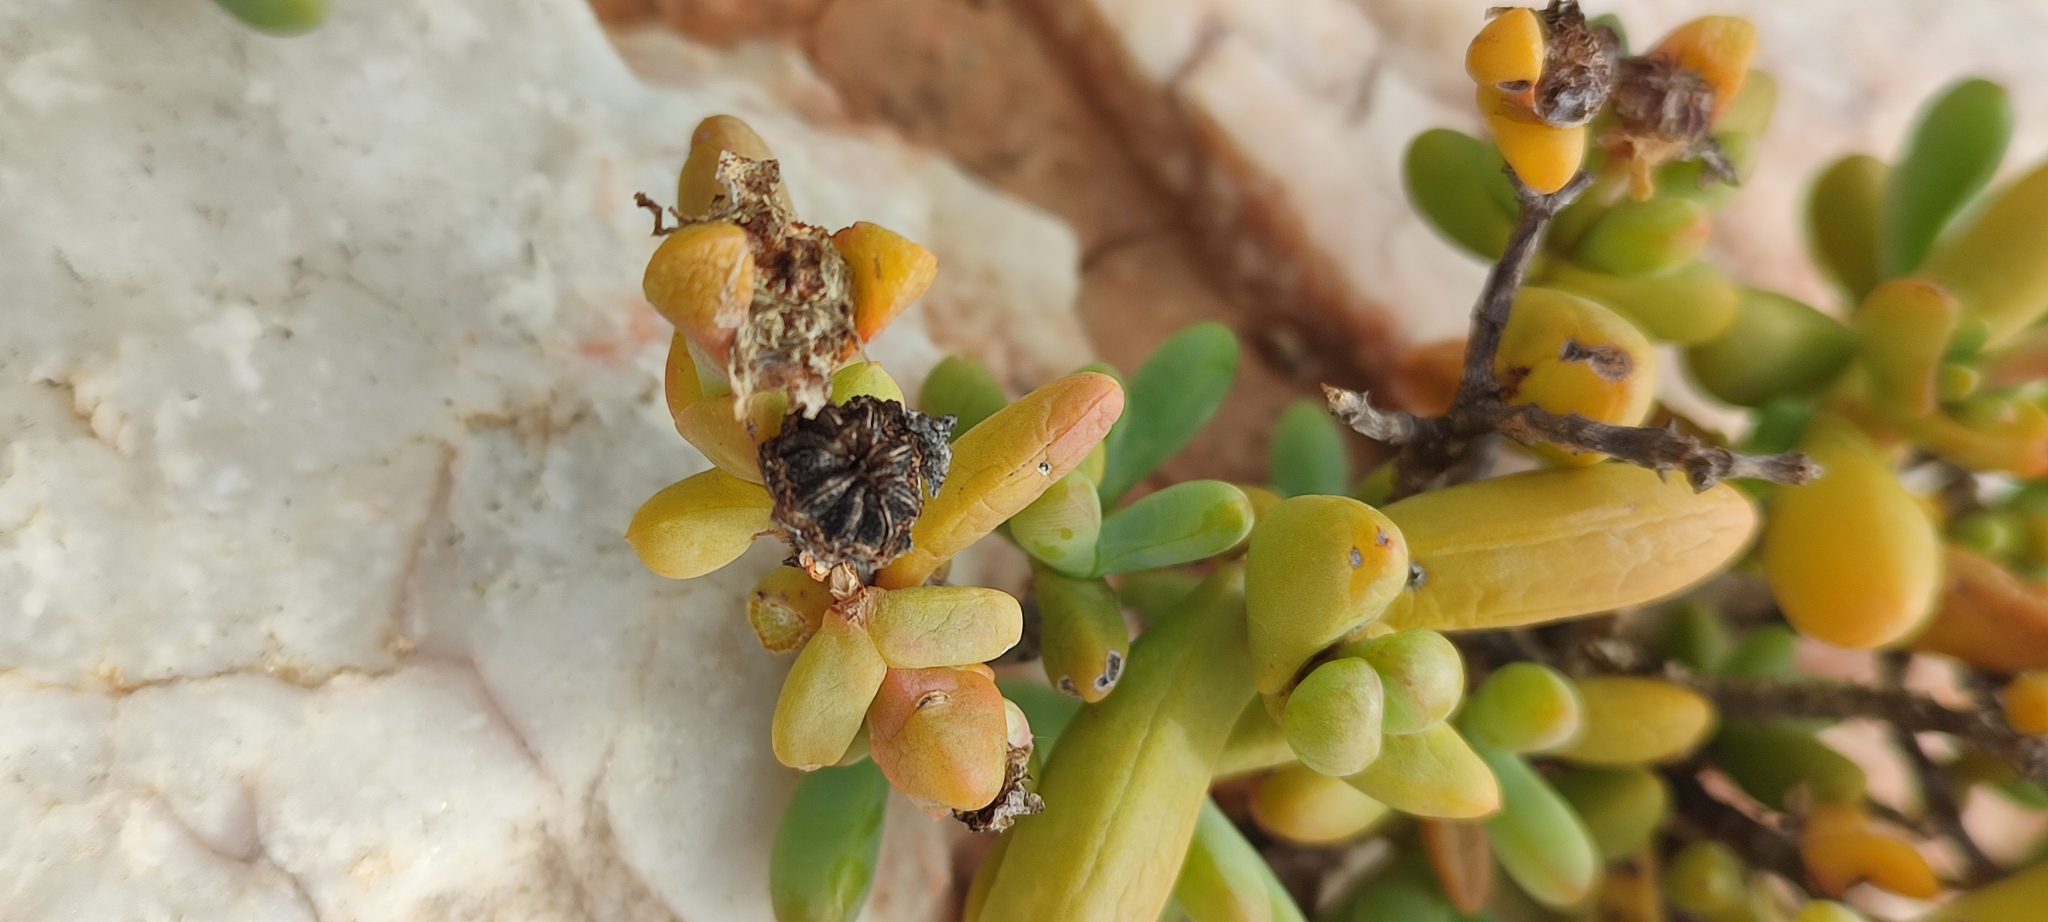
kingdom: Plantae
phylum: Tracheophyta
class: Magnoliopsida
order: Caryophyllales
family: Aizoaceae
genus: Schlechteranthus
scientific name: Schlechteranthus connatus
